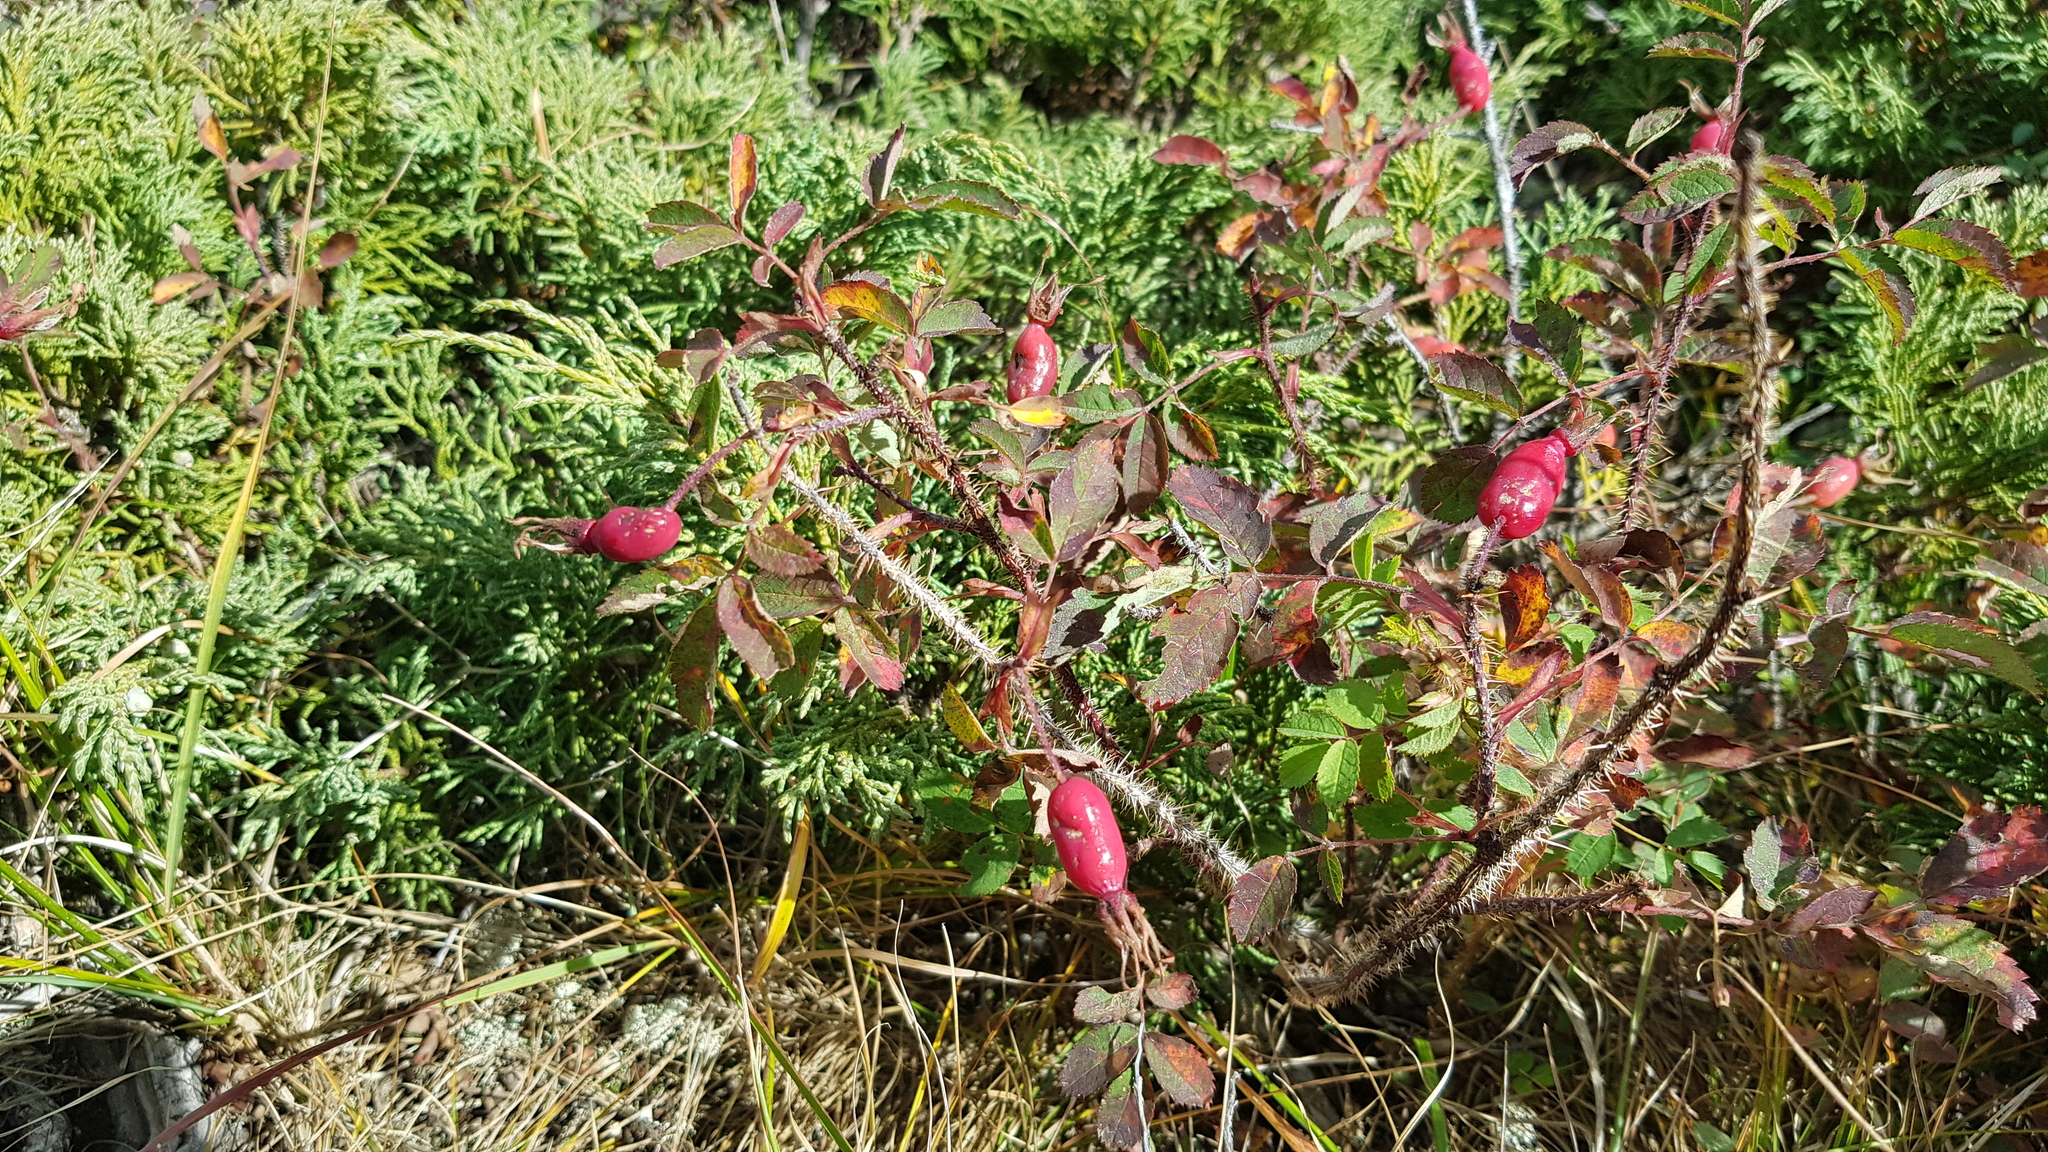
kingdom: Plantae
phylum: Tracheophyta
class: Magnoliopsida
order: Rosales
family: Rosaceae
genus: Rosa
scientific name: Rosa acicularis
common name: Prickly rose
